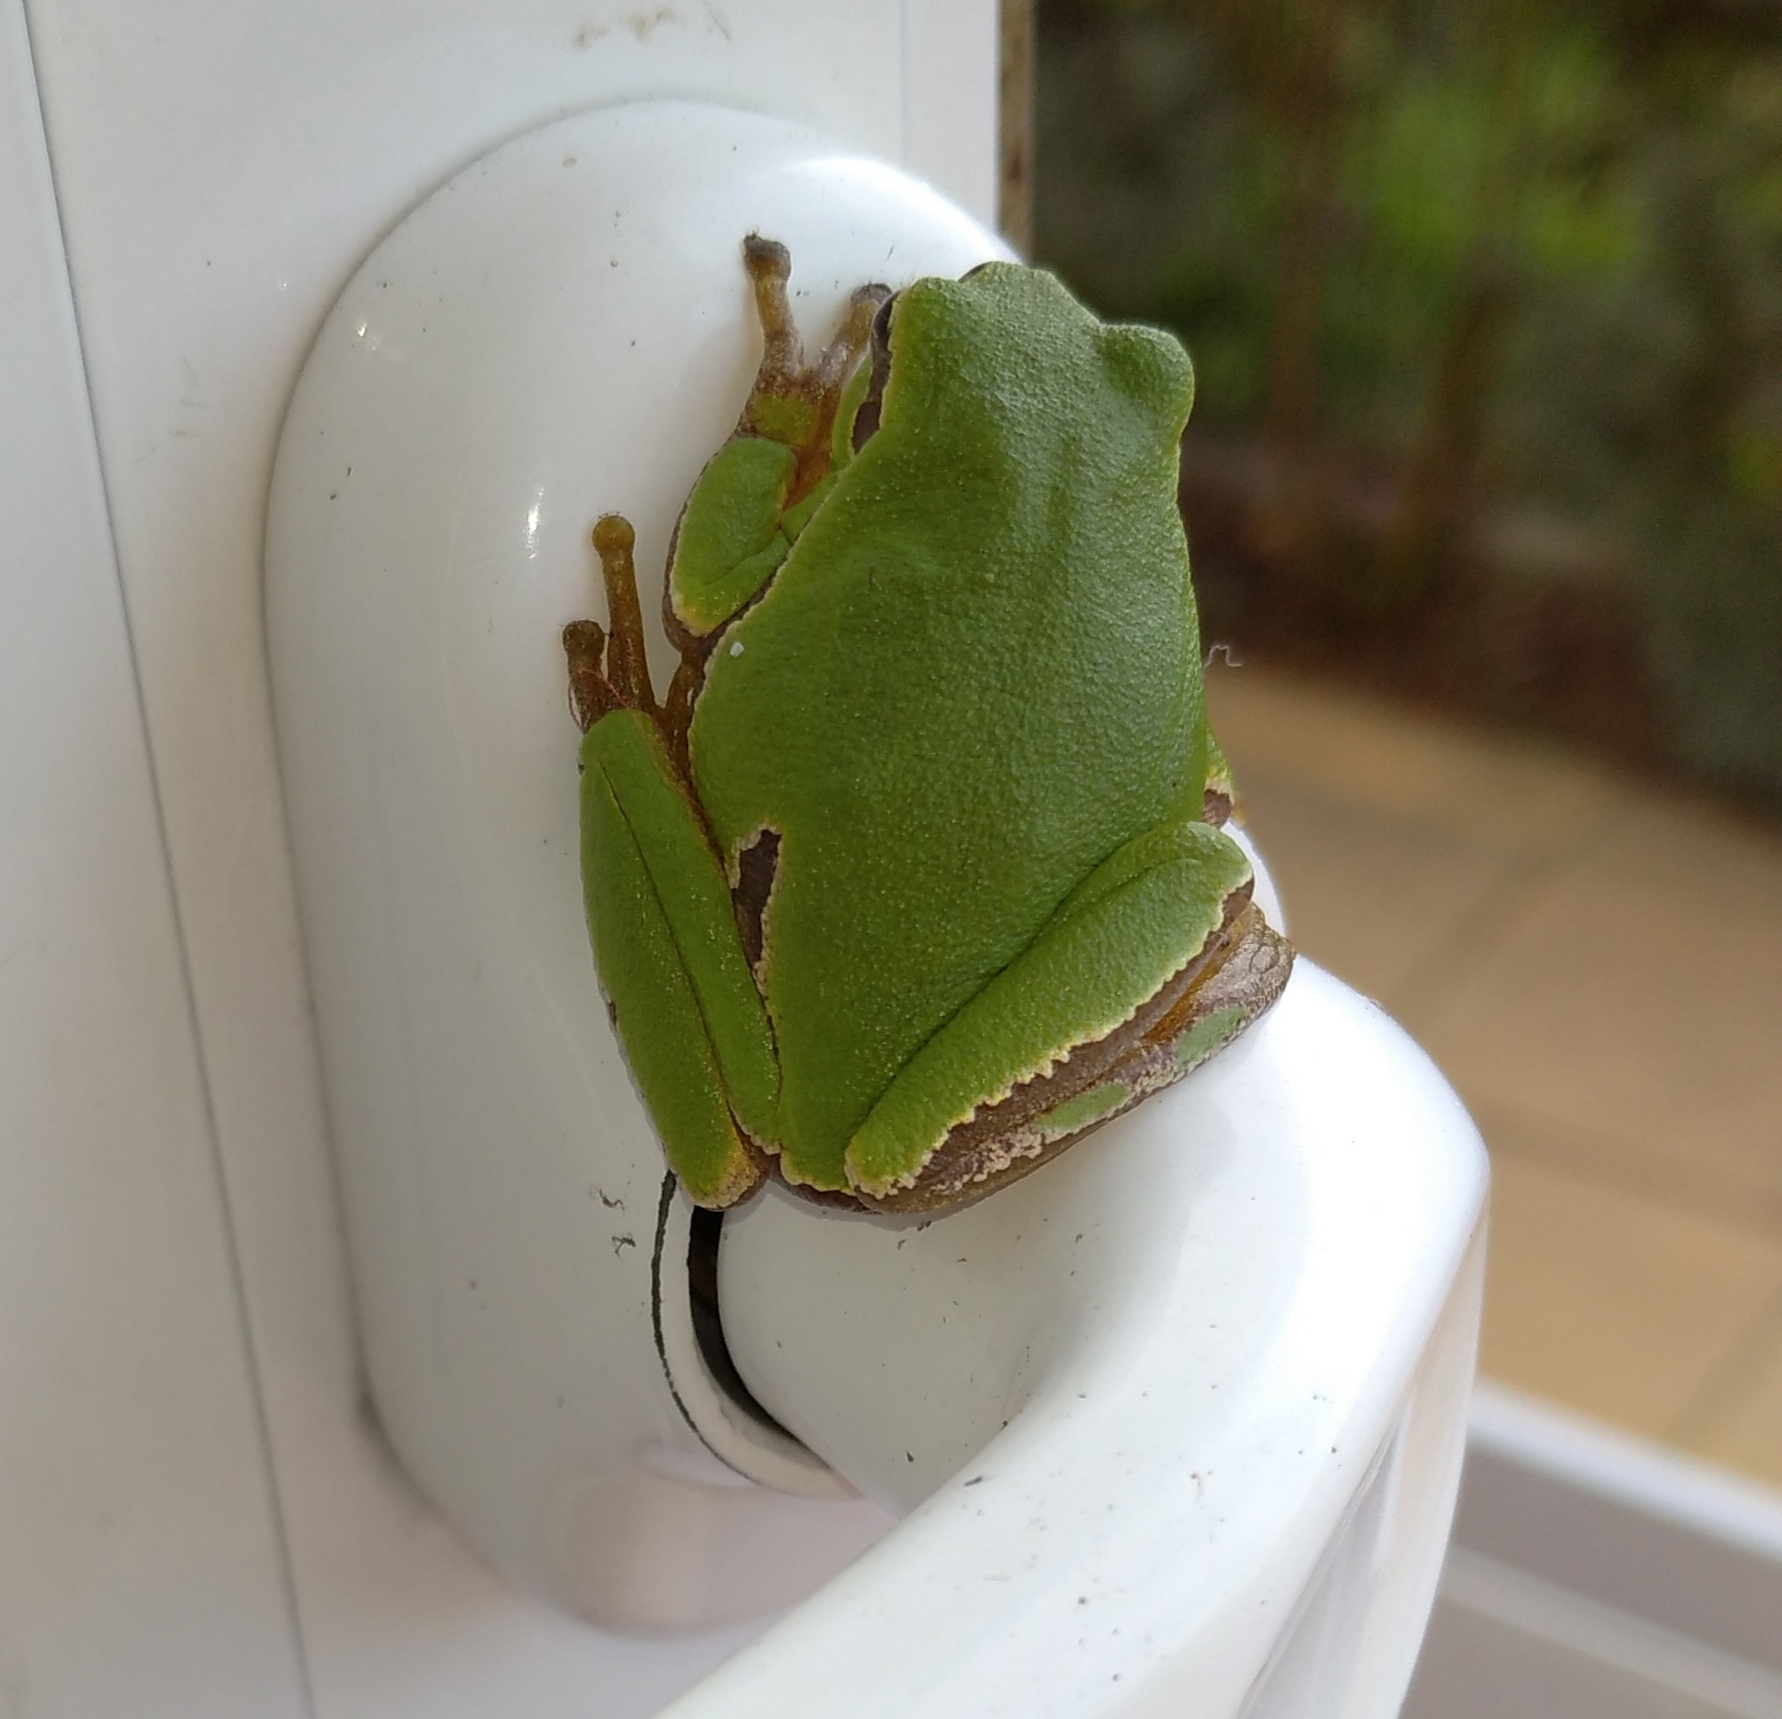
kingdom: Animalia
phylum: Chordata
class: Amphibia
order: Anura
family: Hylidae
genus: Hyla
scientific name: Hyla orientalis
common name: Caucasian treefrog
